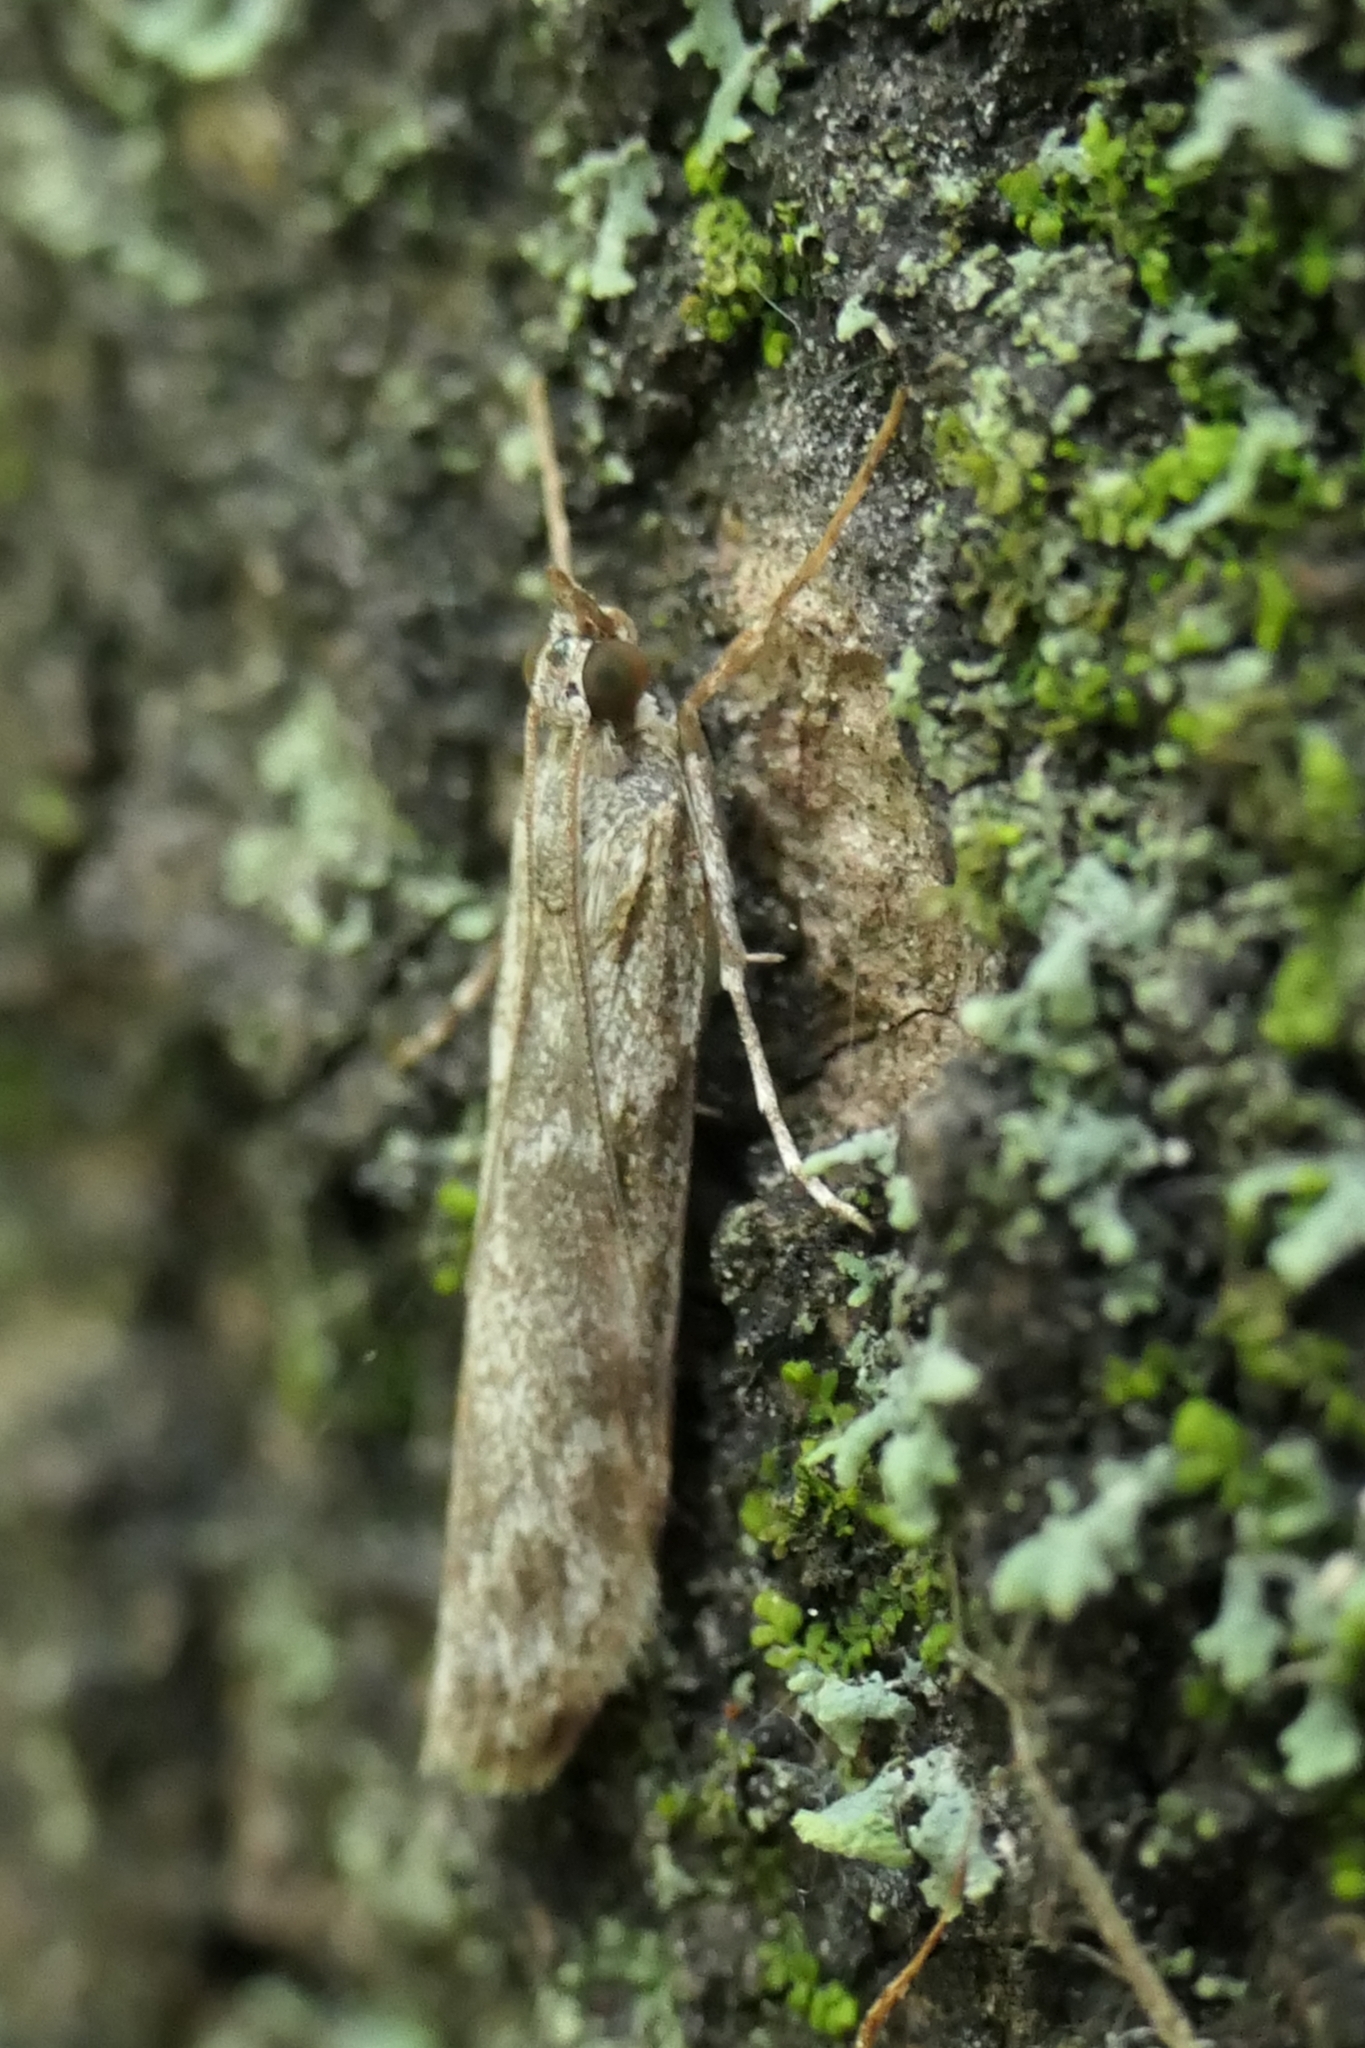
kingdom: Animalia
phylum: Arthropoda
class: Insecta
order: Lepidoptera
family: Crambidae
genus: Eudonia
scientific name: Eudonia leptalea
